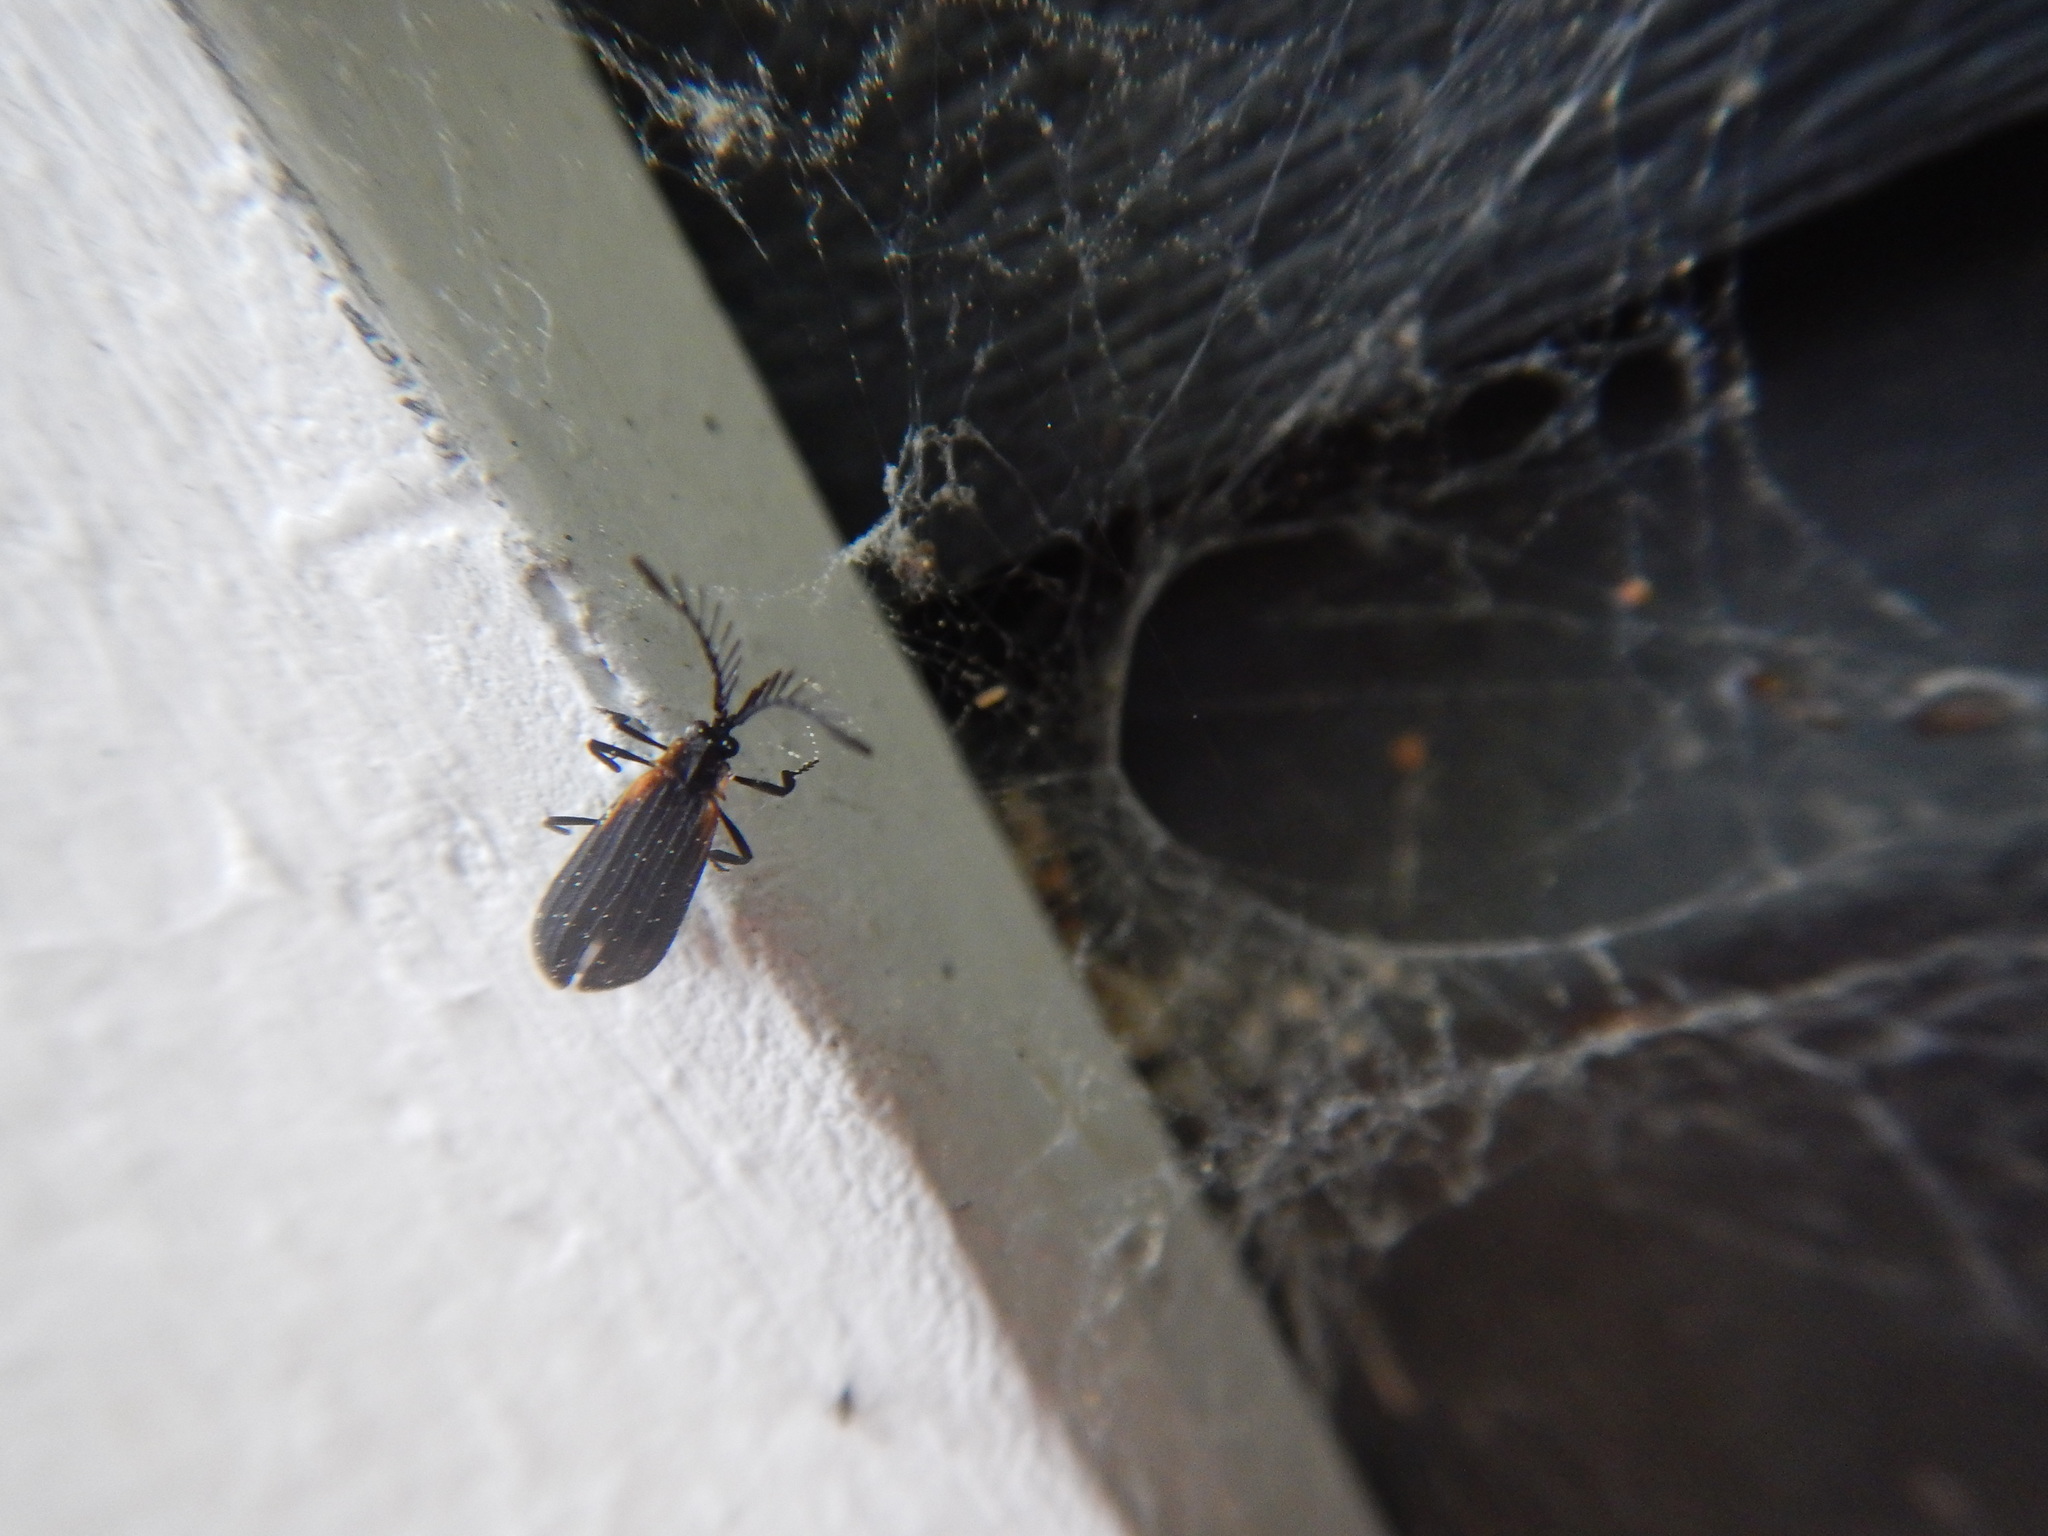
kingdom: Animalia
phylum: Arthropoda
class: Insecta
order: Coleoptera
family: Lycidae
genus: Leptoceletes
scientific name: Leptoceletes basalis
